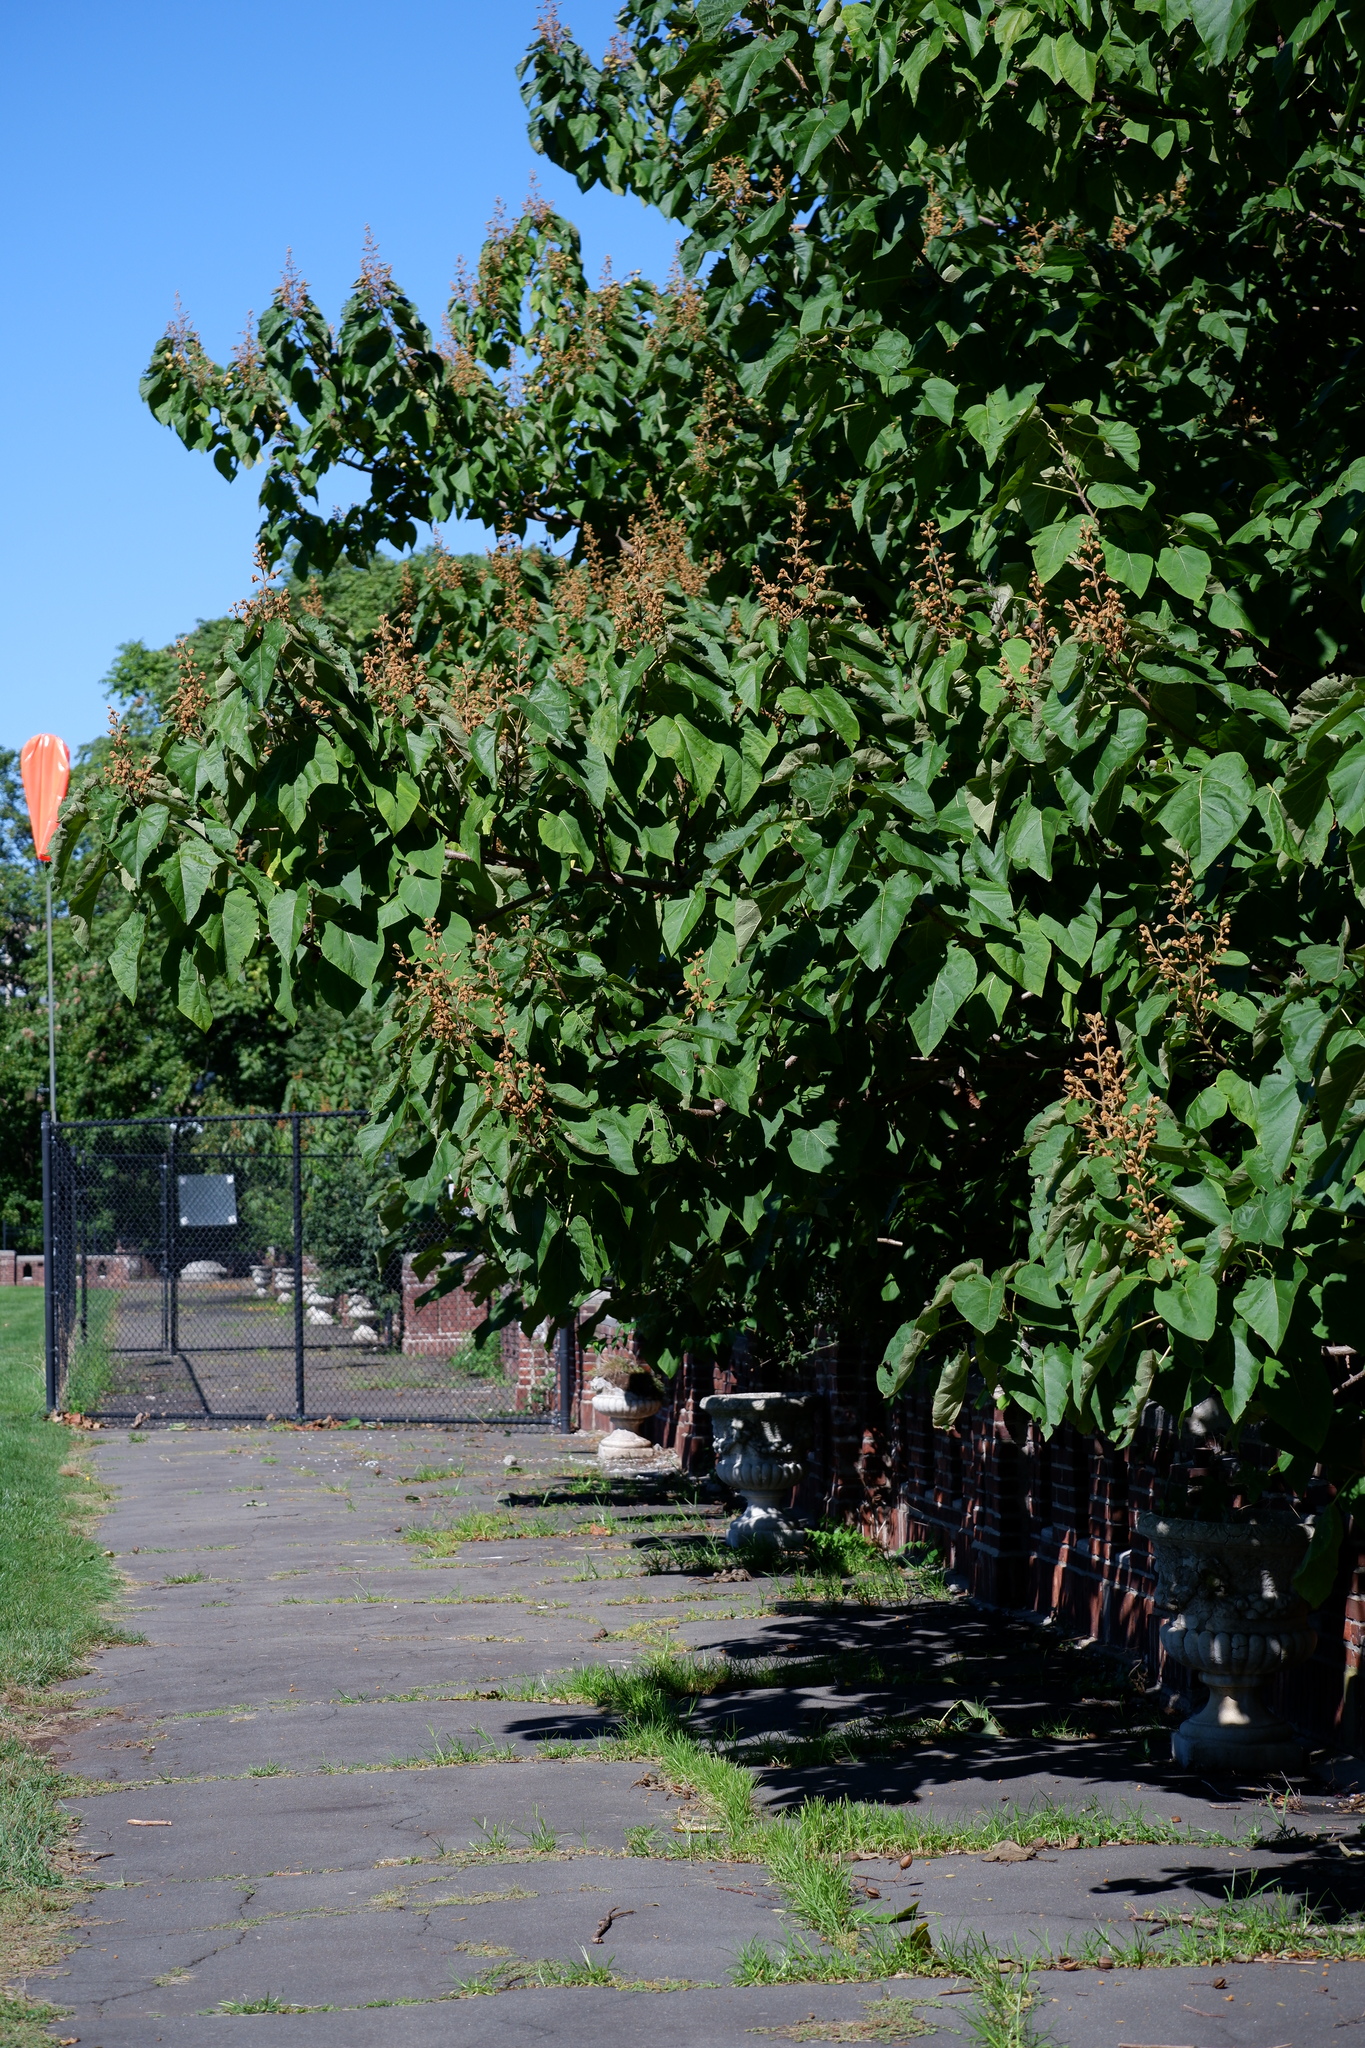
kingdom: Plantae
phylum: Tracheophyta
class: Magnoliopsida
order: Lamiales
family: Paulowniaceae
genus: Paulownia
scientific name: Paulownia tomentosa
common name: Foxglove-tree
